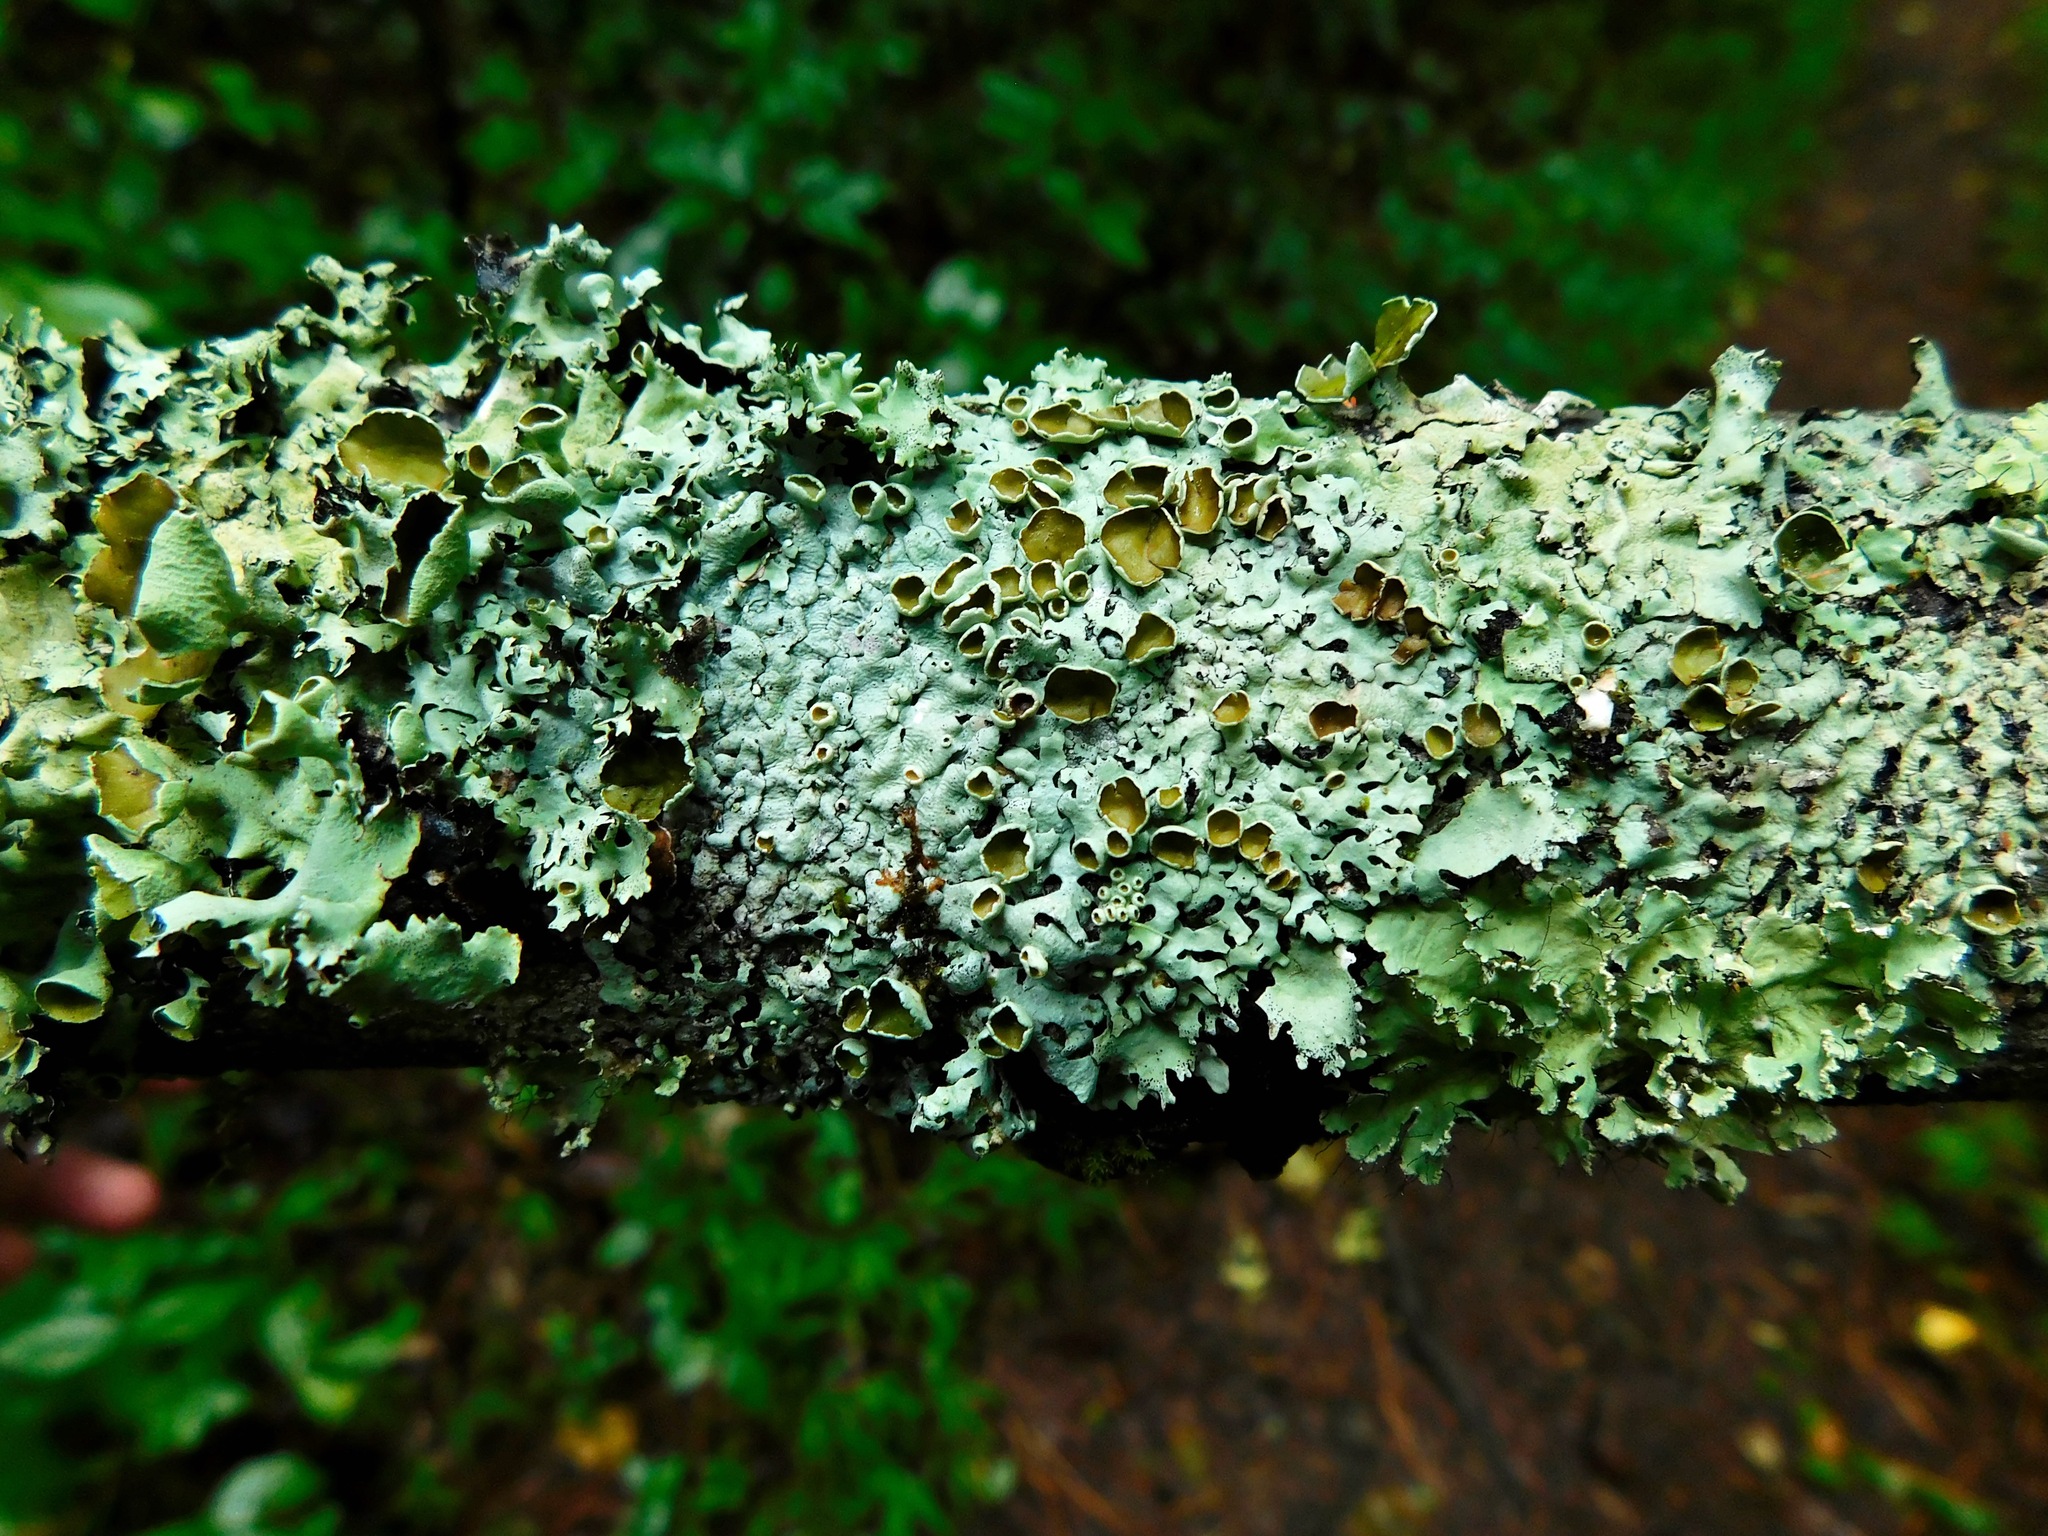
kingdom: Fungi
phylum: Ascomycota
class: Lecanoromycetes
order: Lecanorales
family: Parmeliaceae
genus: Hypotrachyna
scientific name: Hypotrachyna livida
